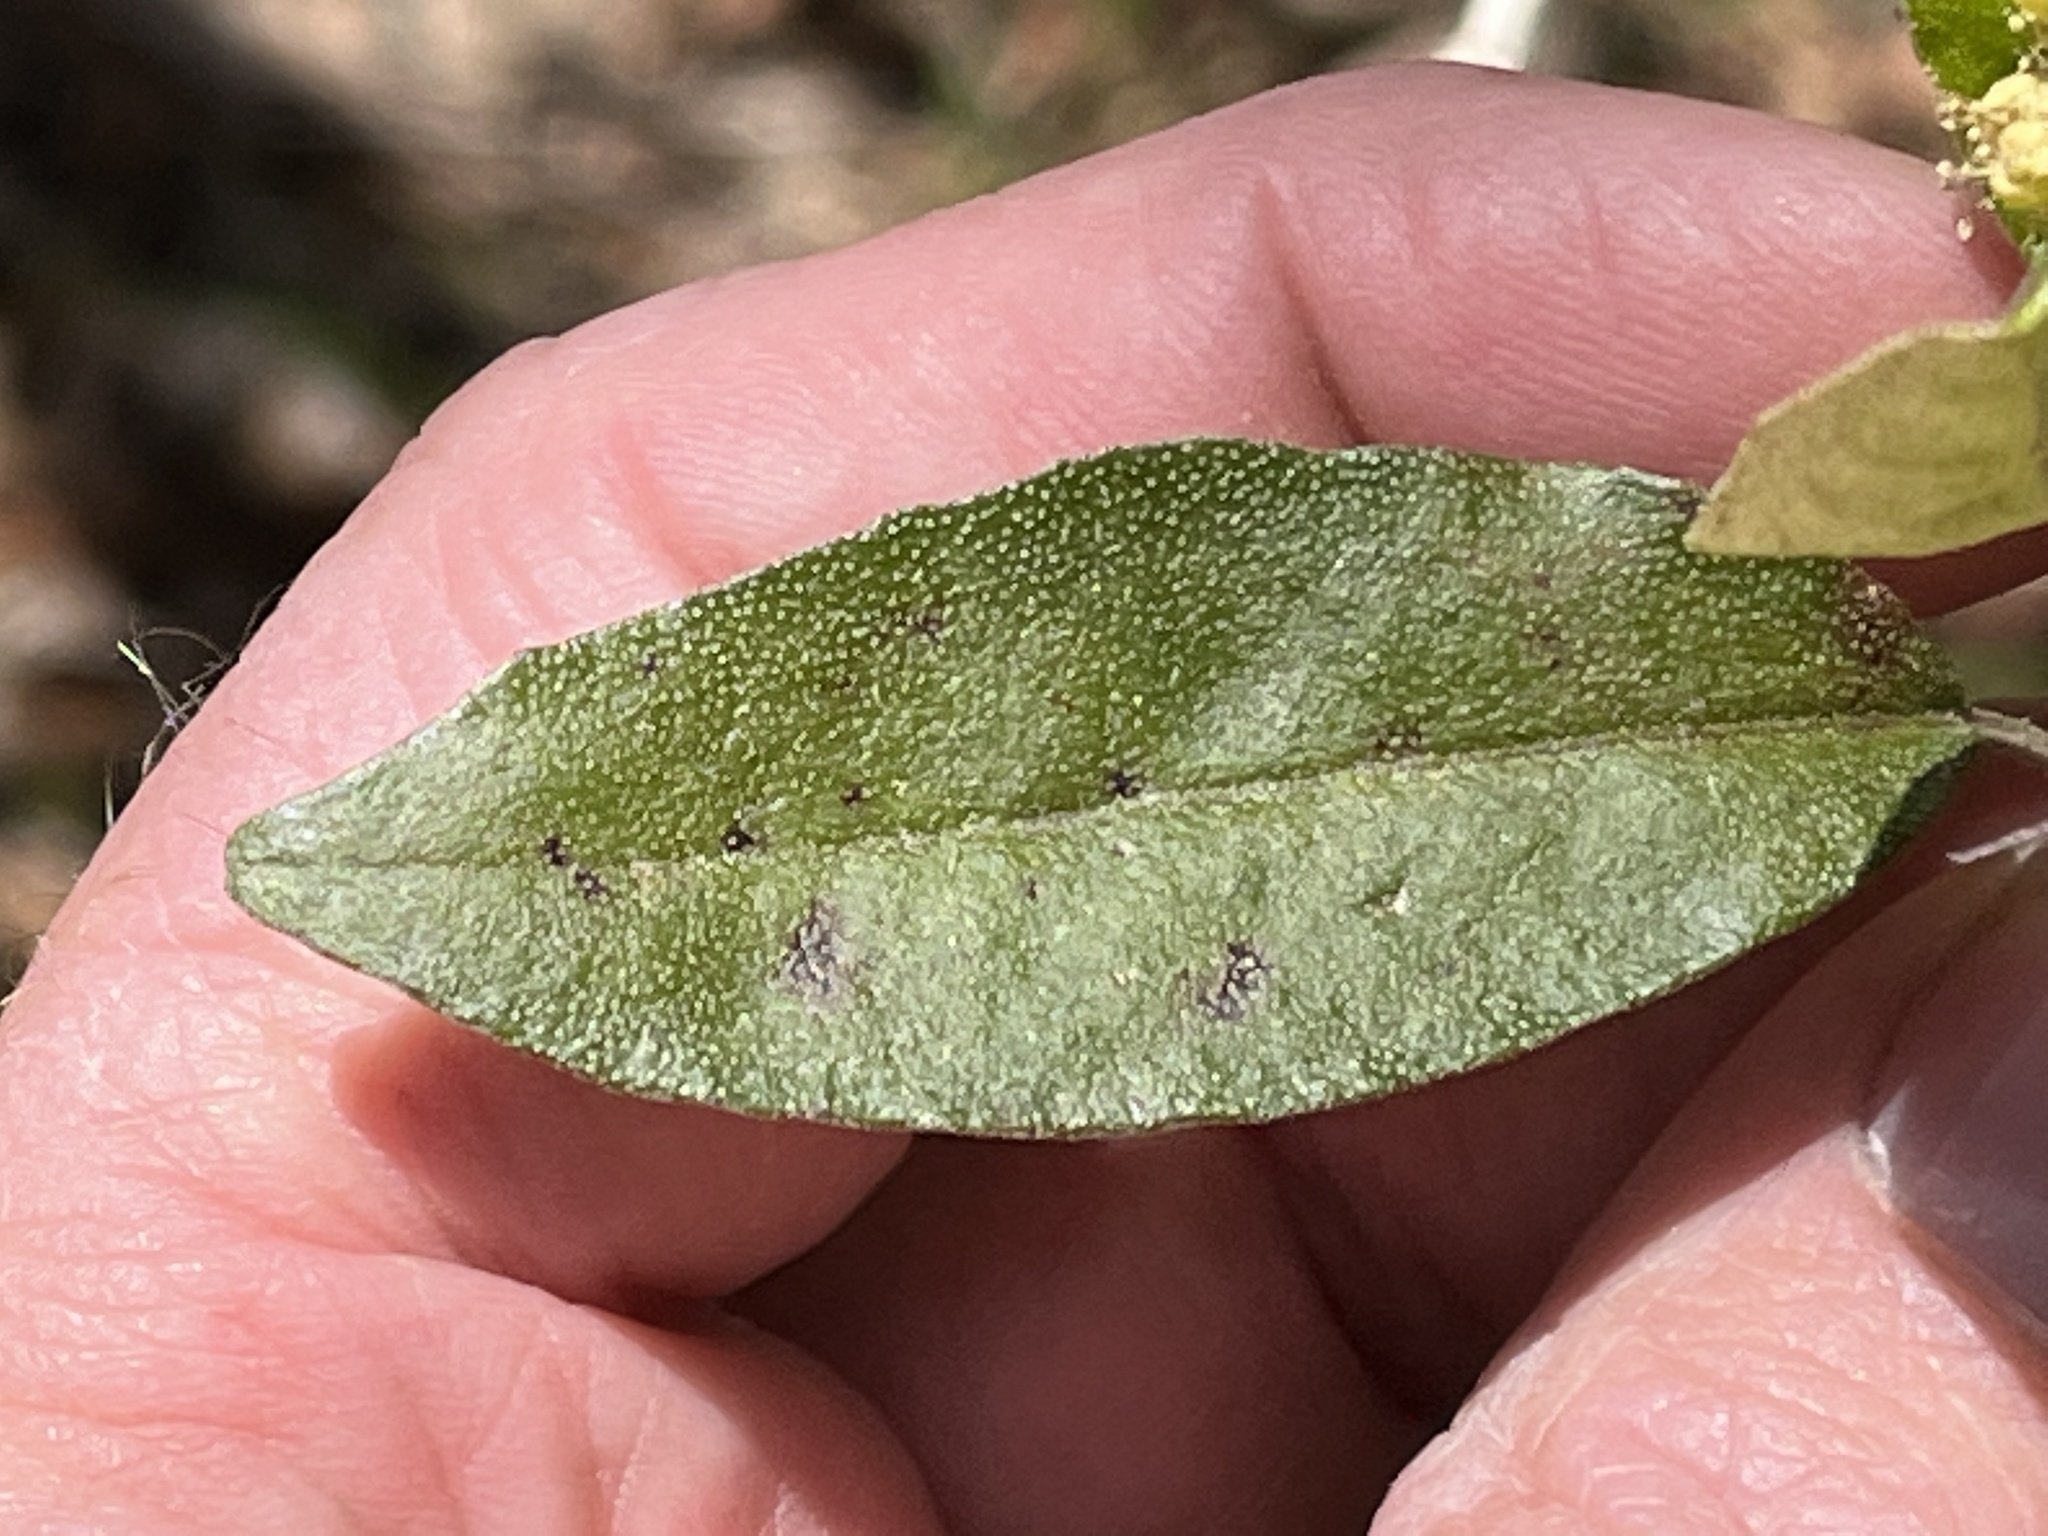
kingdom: Plantae
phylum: Tracheophyta
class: Magnoliopsida
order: Malpighiales
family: Euphorbiaceae
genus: Croton
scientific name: Croton alabamensis
